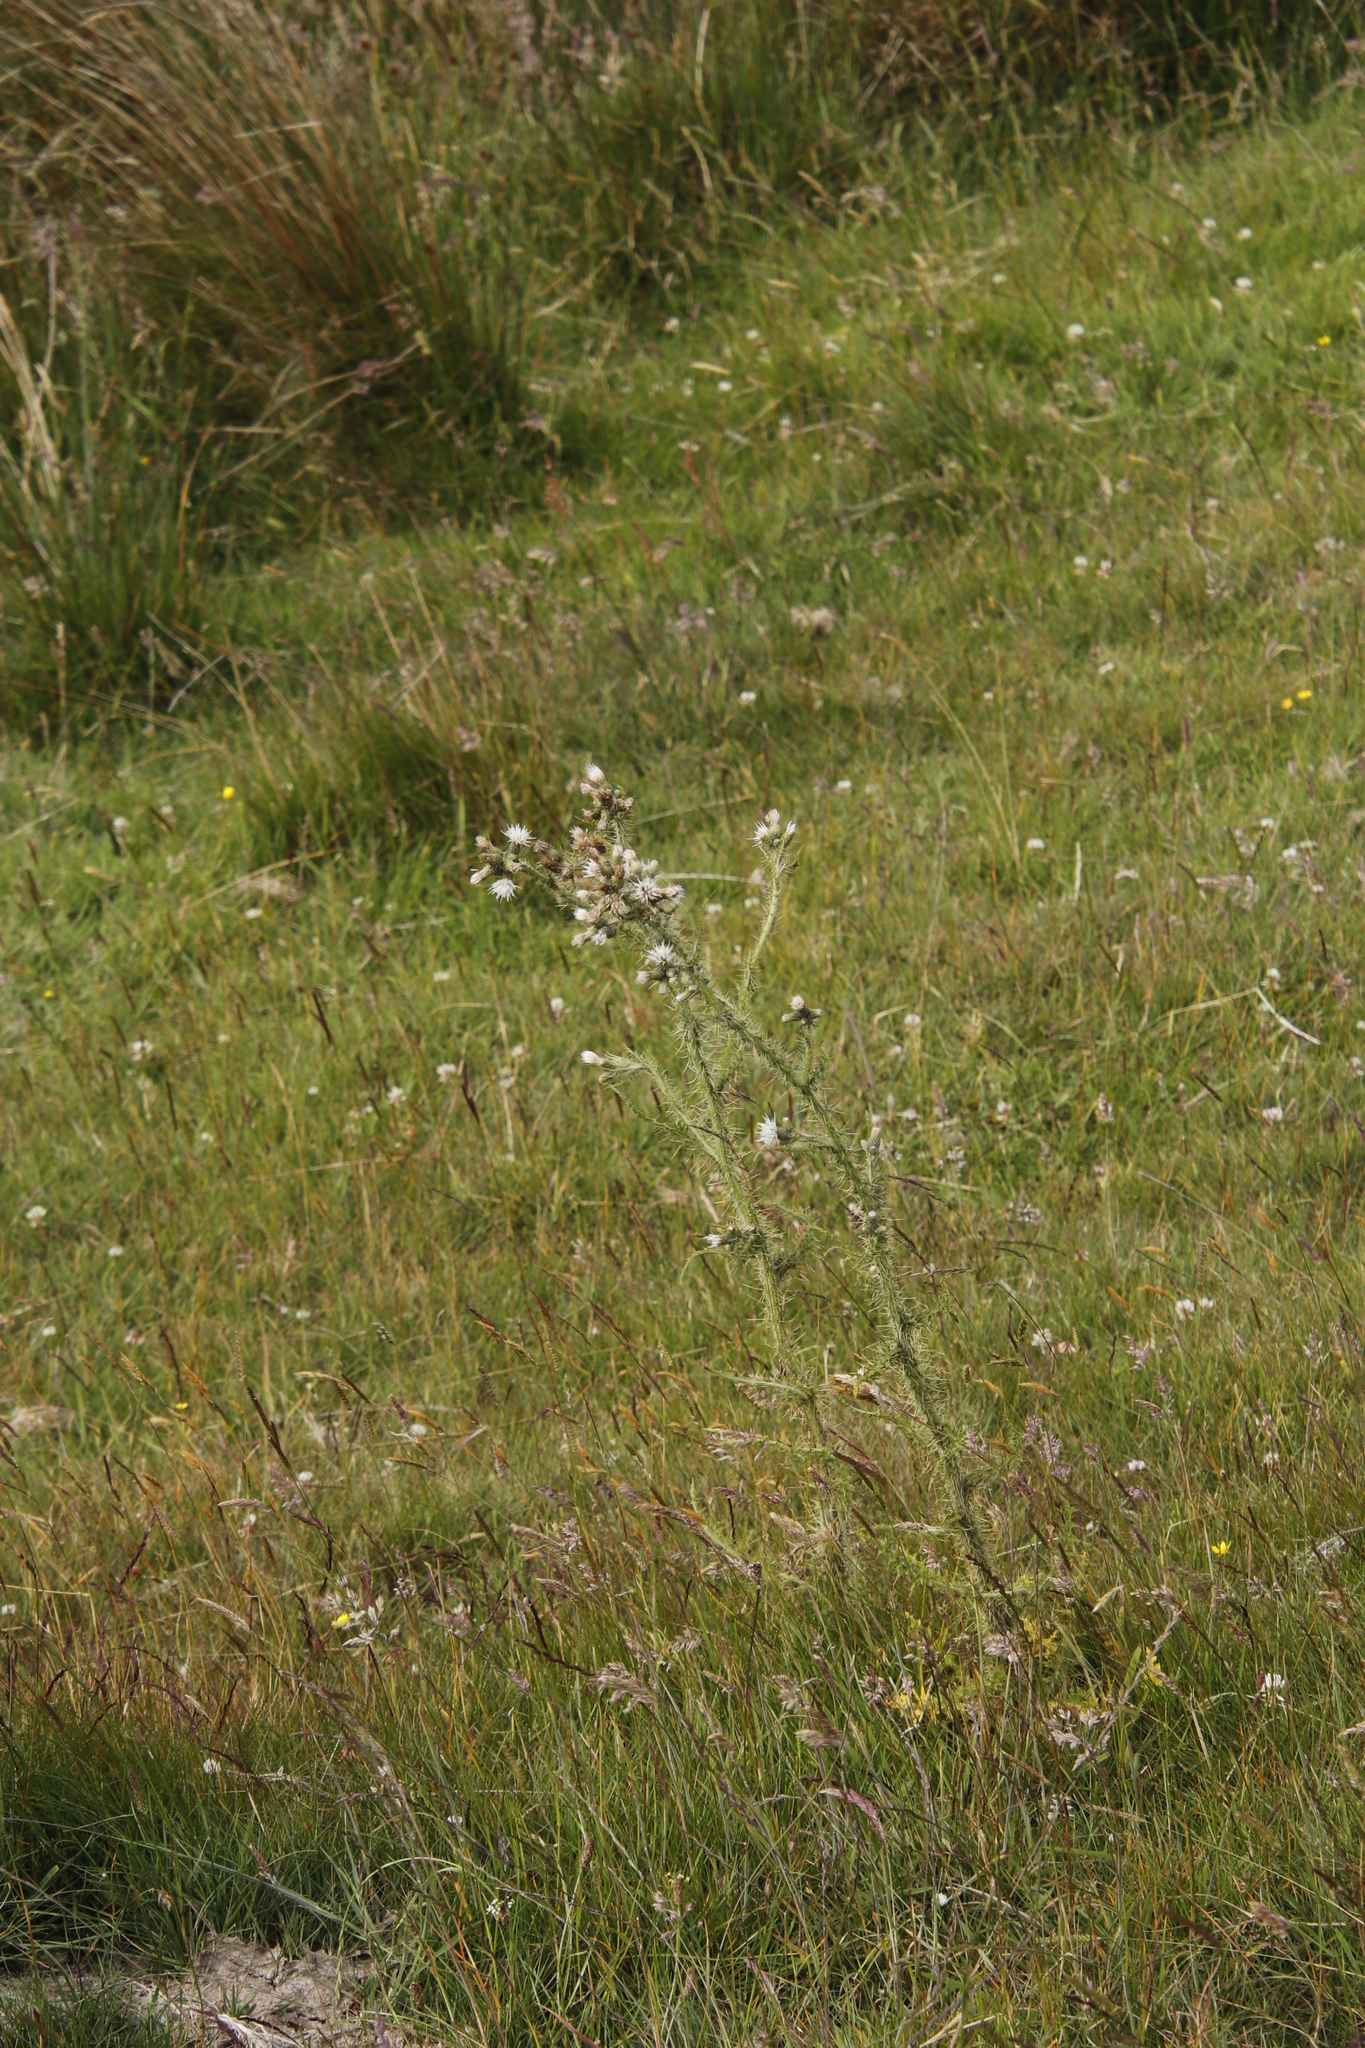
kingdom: Plantae
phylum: Tracheophyta
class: Magnoliopsida
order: Asterales
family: Asteraceae
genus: Cirsium
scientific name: Cirsium palustre
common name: Marsh thistle
